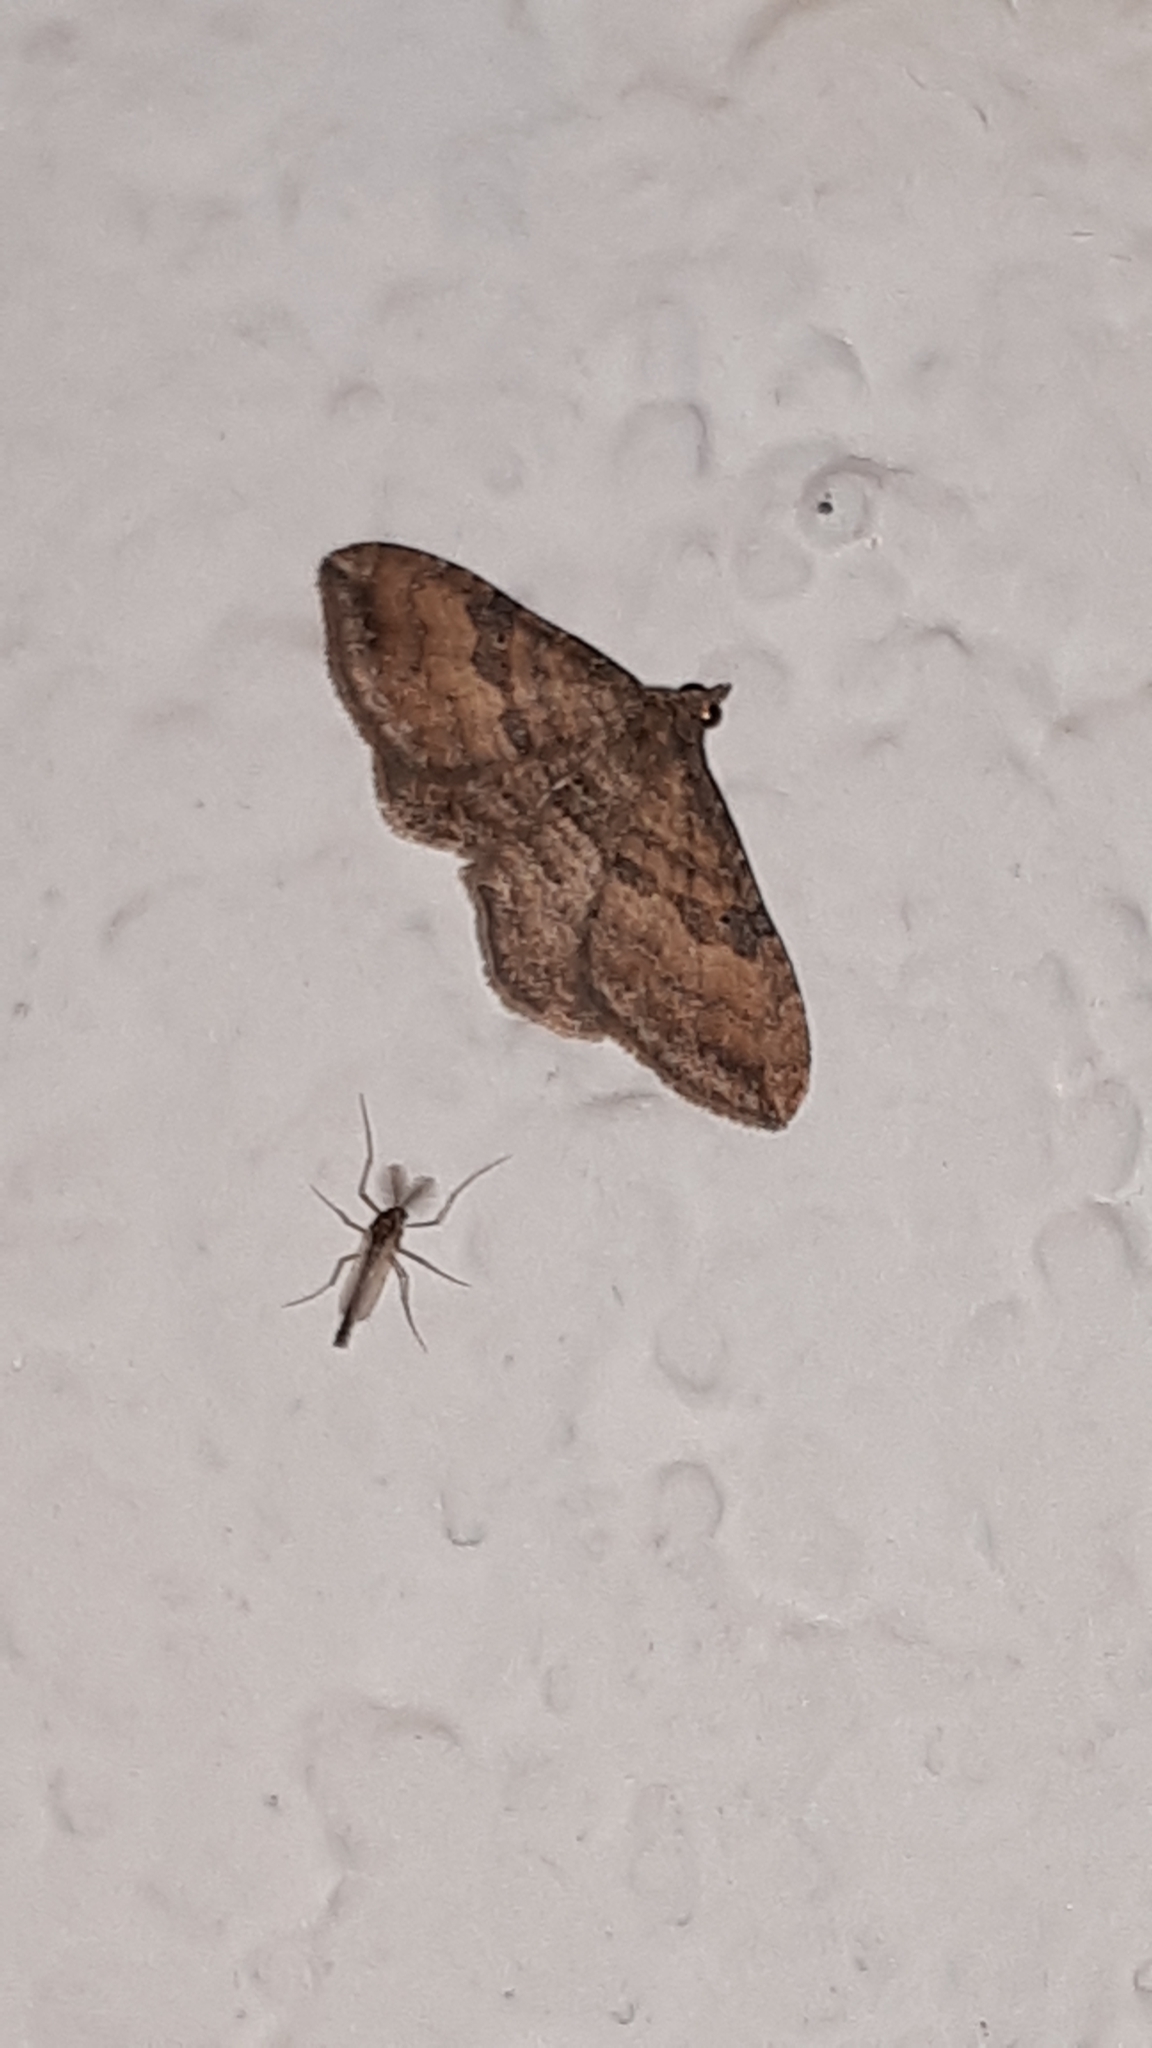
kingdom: Animalia
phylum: Arthropoda
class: Insecta
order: Lepidoptera
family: Geometridae
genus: Orthonama
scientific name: Orthonama obstipata
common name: The gem
